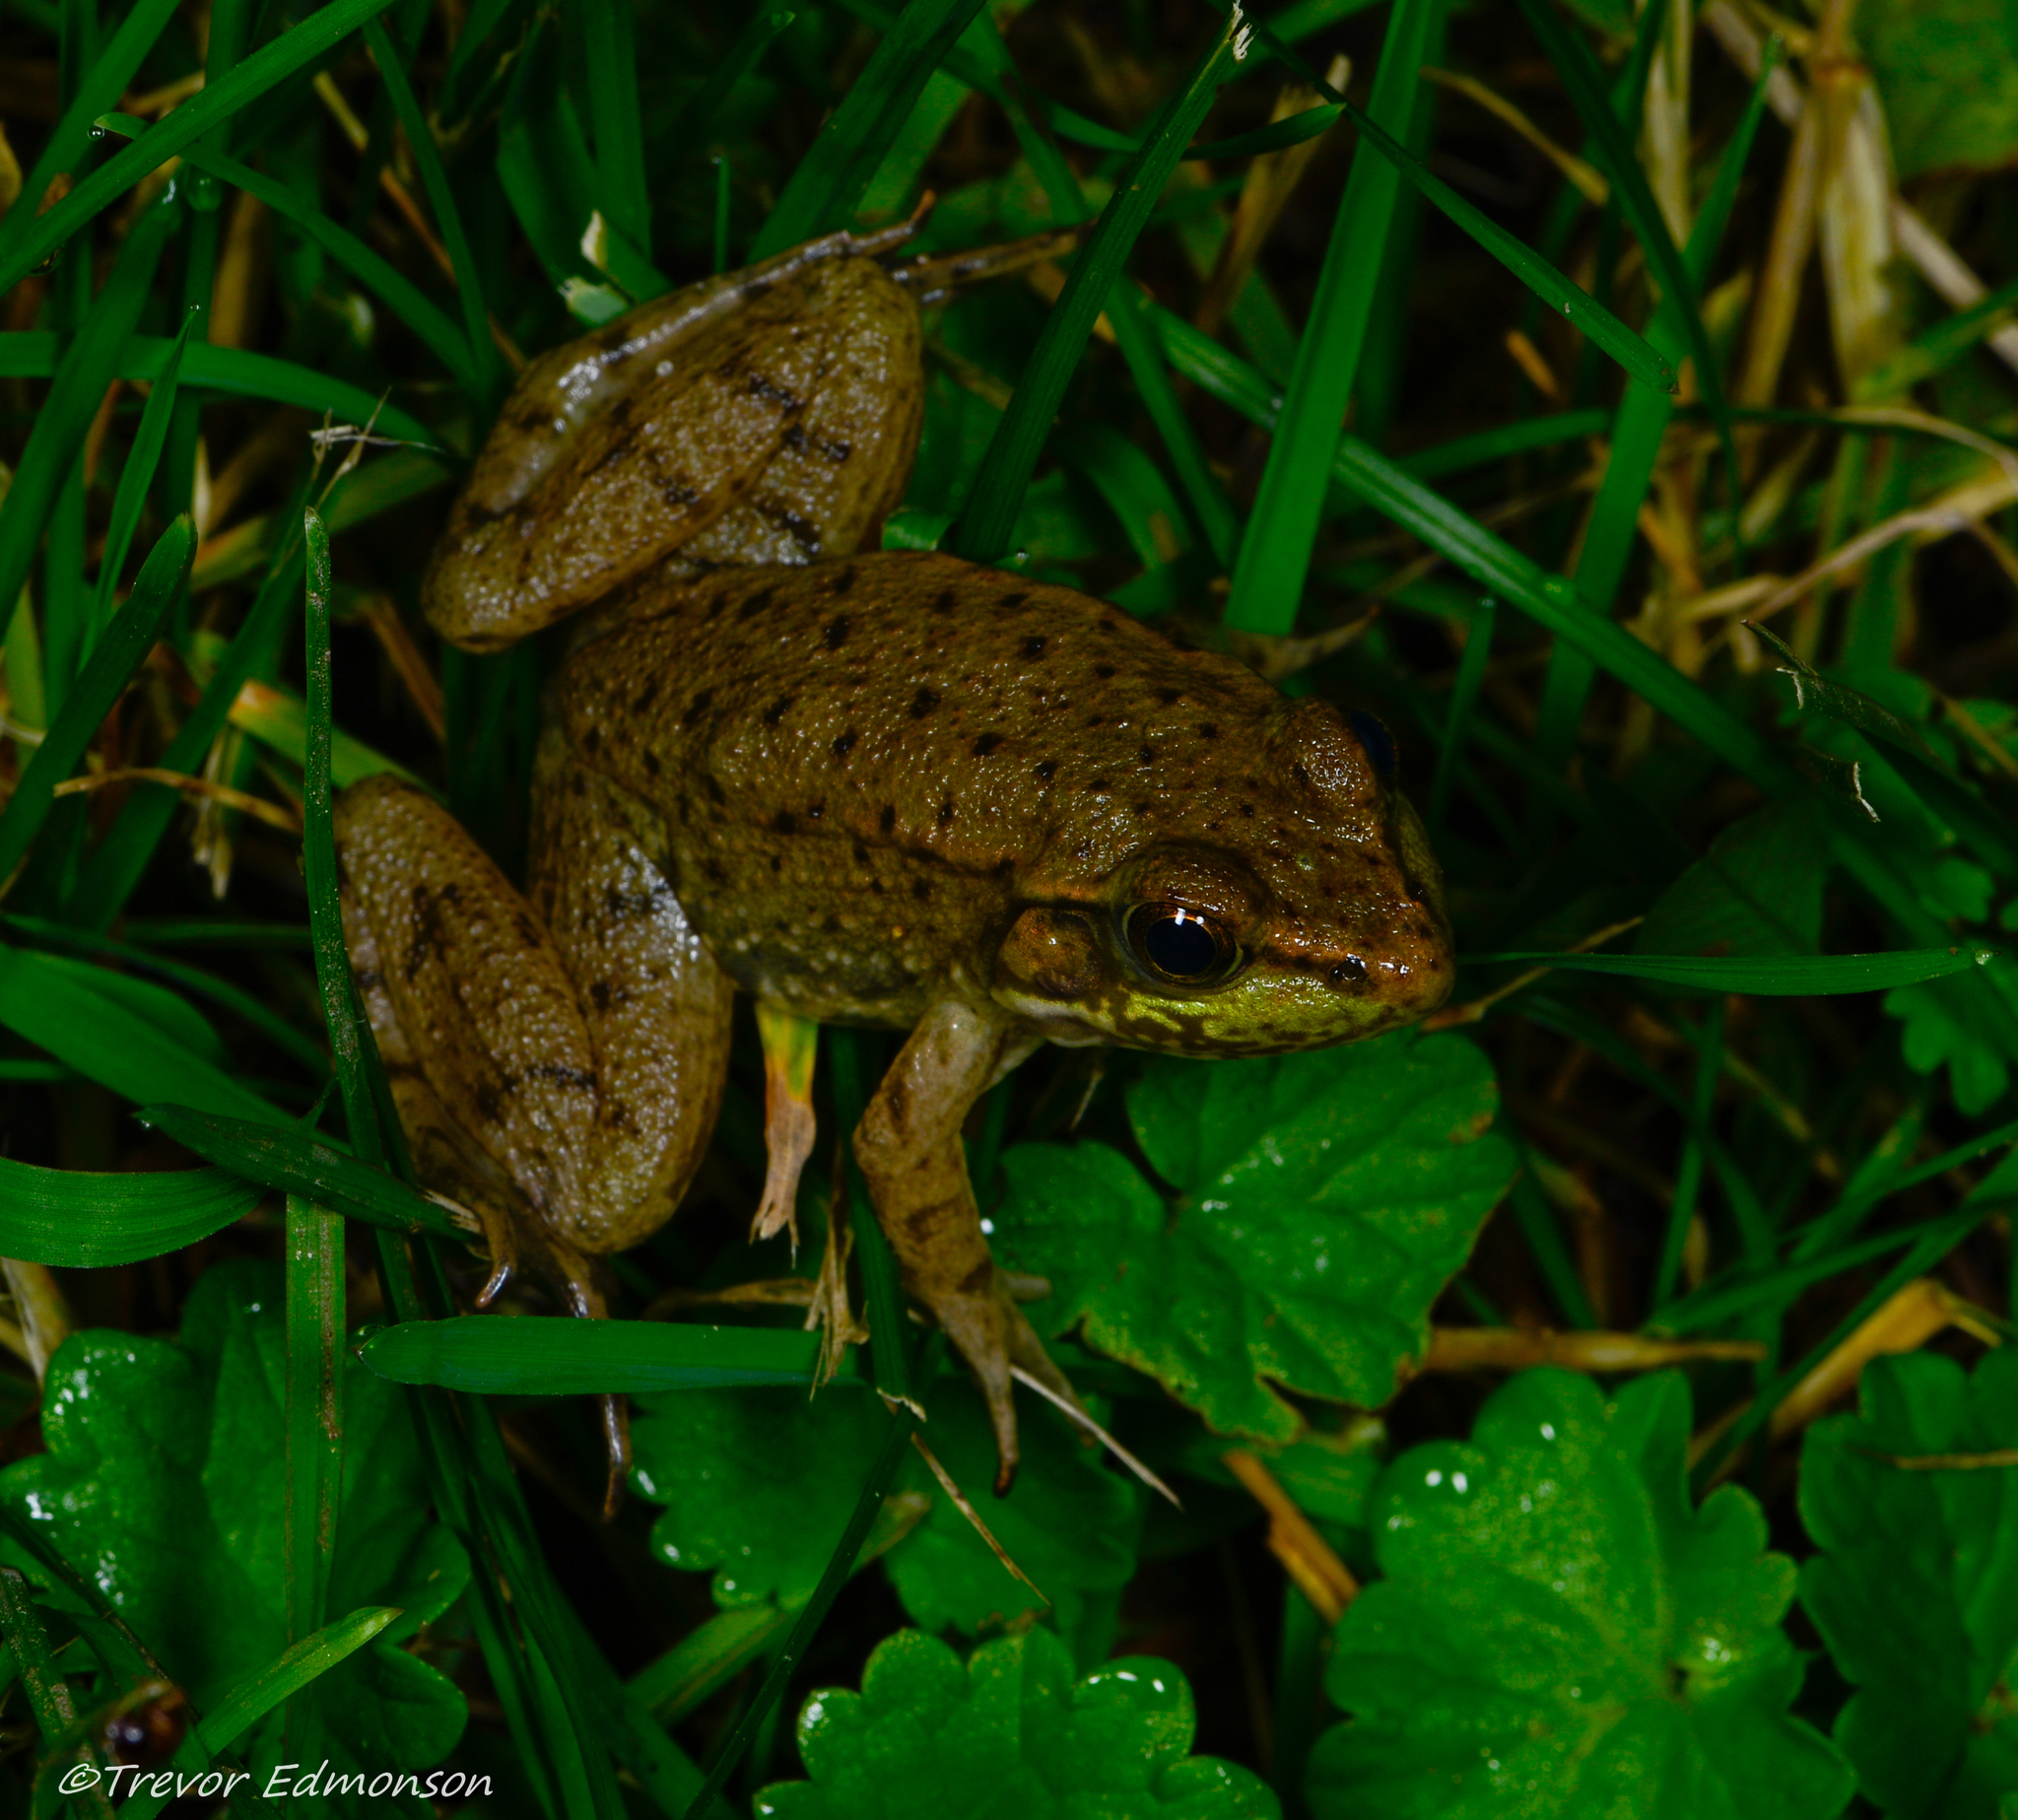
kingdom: Animalia
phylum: Chordata
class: Amphibia
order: Anura
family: Ranidae
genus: Lithobates
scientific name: Lithobates clamitans
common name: Green frog
